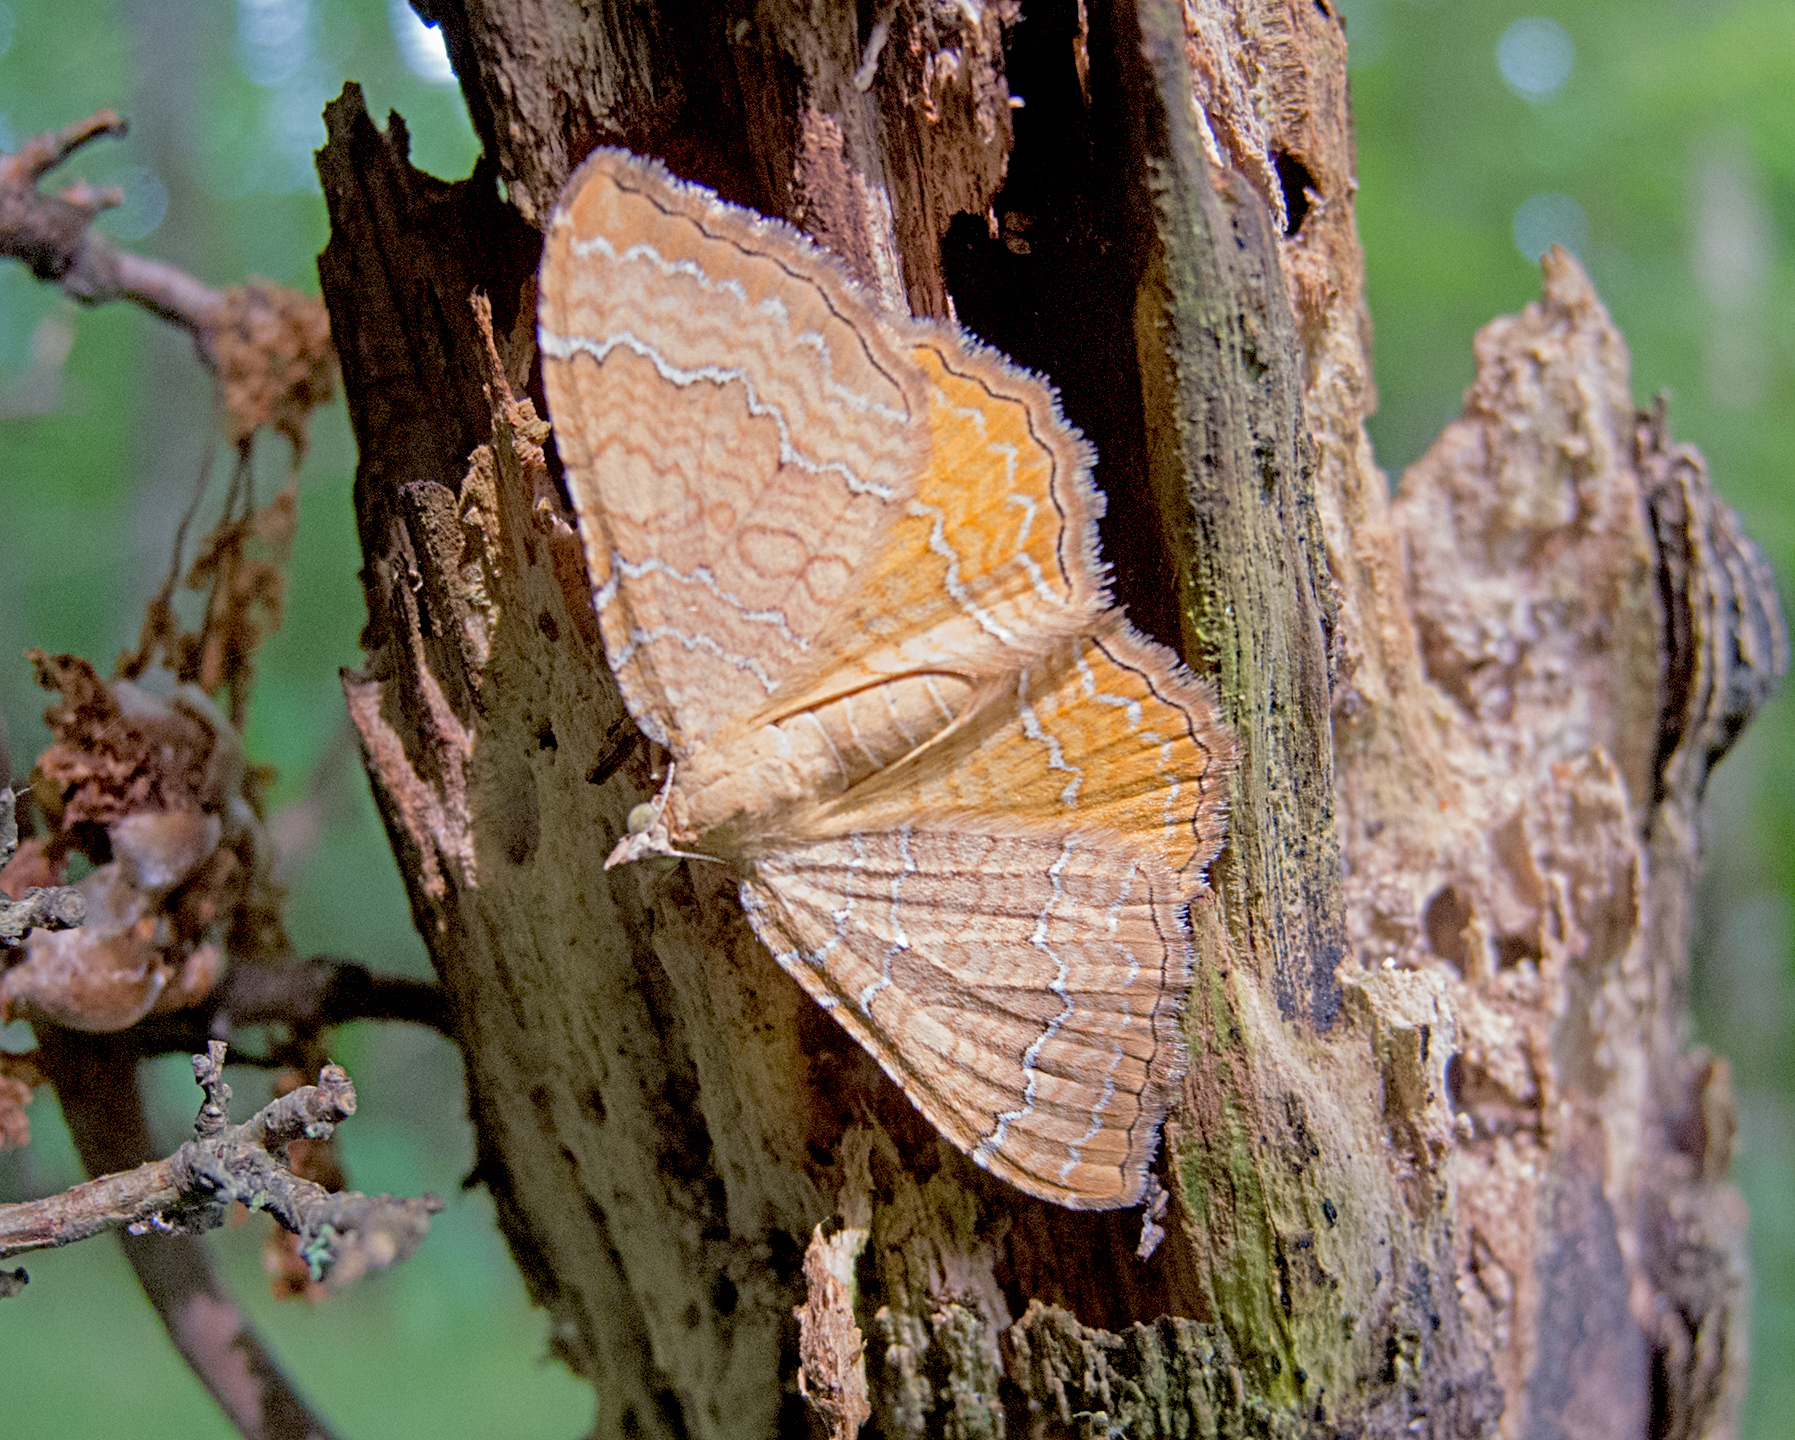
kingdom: Animalia
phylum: Arthropoda
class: Insecta
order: Lepidoptera
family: Geometridae
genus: Camptogramma
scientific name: Camptogramma bilineata
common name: Yellow shell
